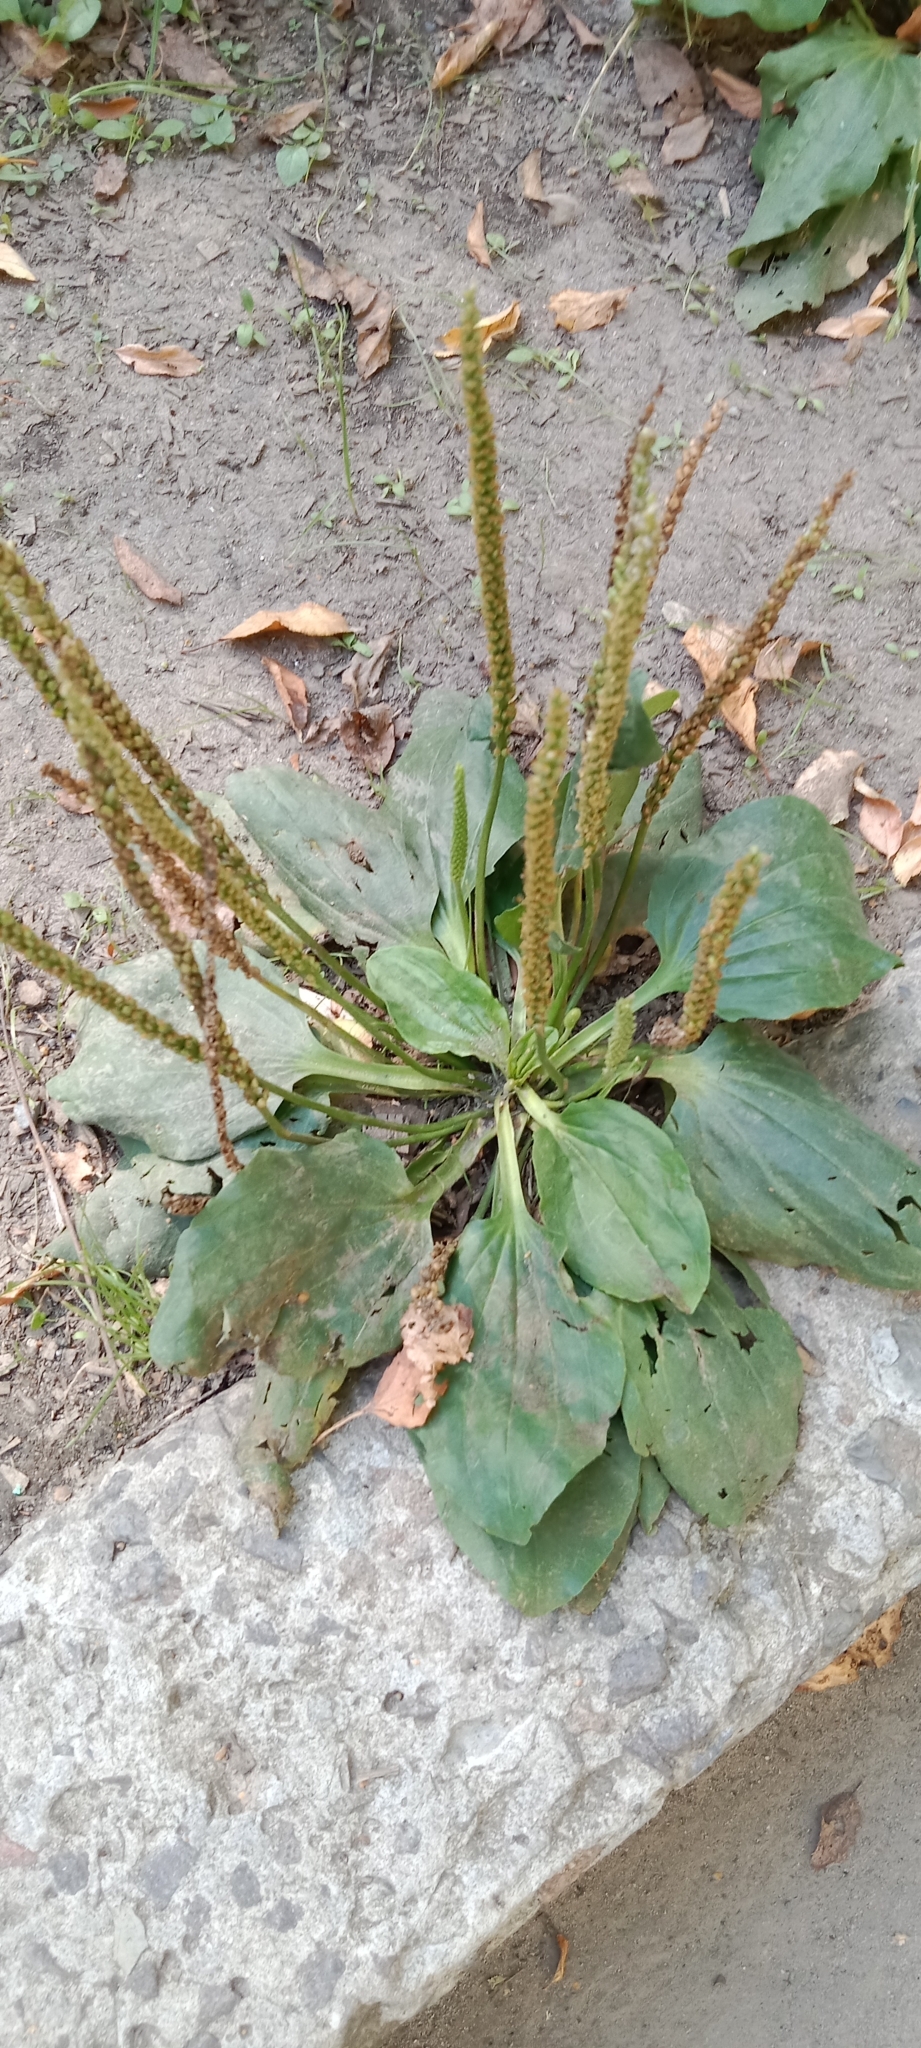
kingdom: Plantae
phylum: Tracheophyta
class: Magnoliopsida
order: Lamiales
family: Plantaginaceae
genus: Plantago
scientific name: Plantago major
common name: Common plantain
